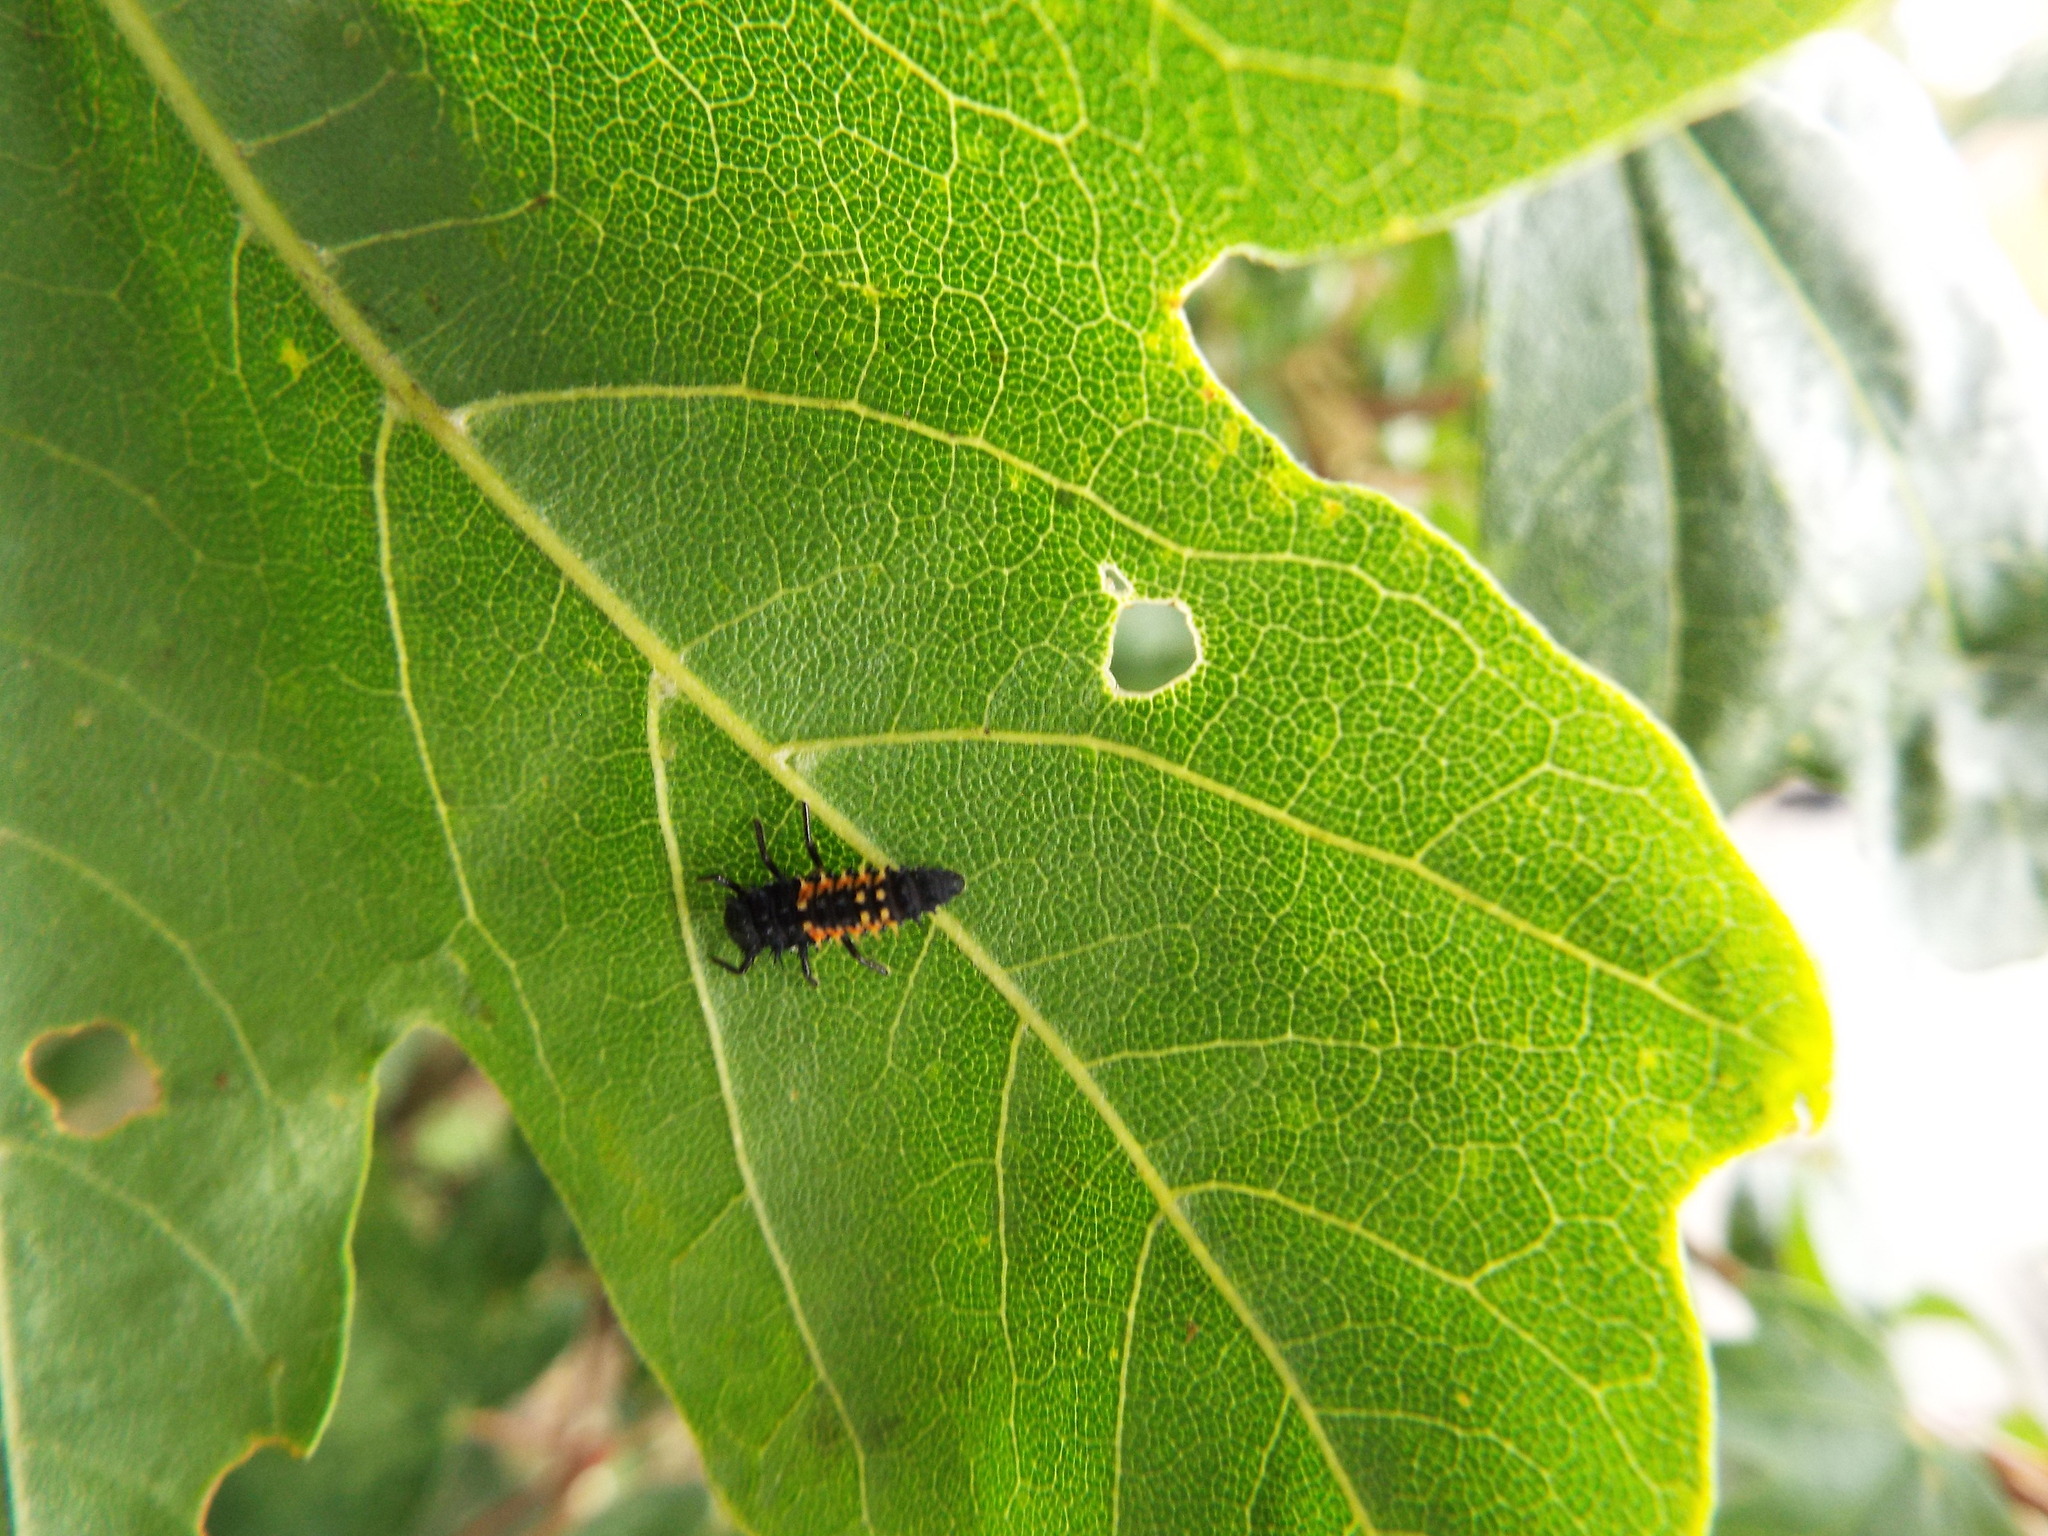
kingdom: Animalia
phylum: Arthropoda
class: Insecta
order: Coleoptera
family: Coccinellidae
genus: Harmonia
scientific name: Harmonia axyridis
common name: Harlequin ladybird
